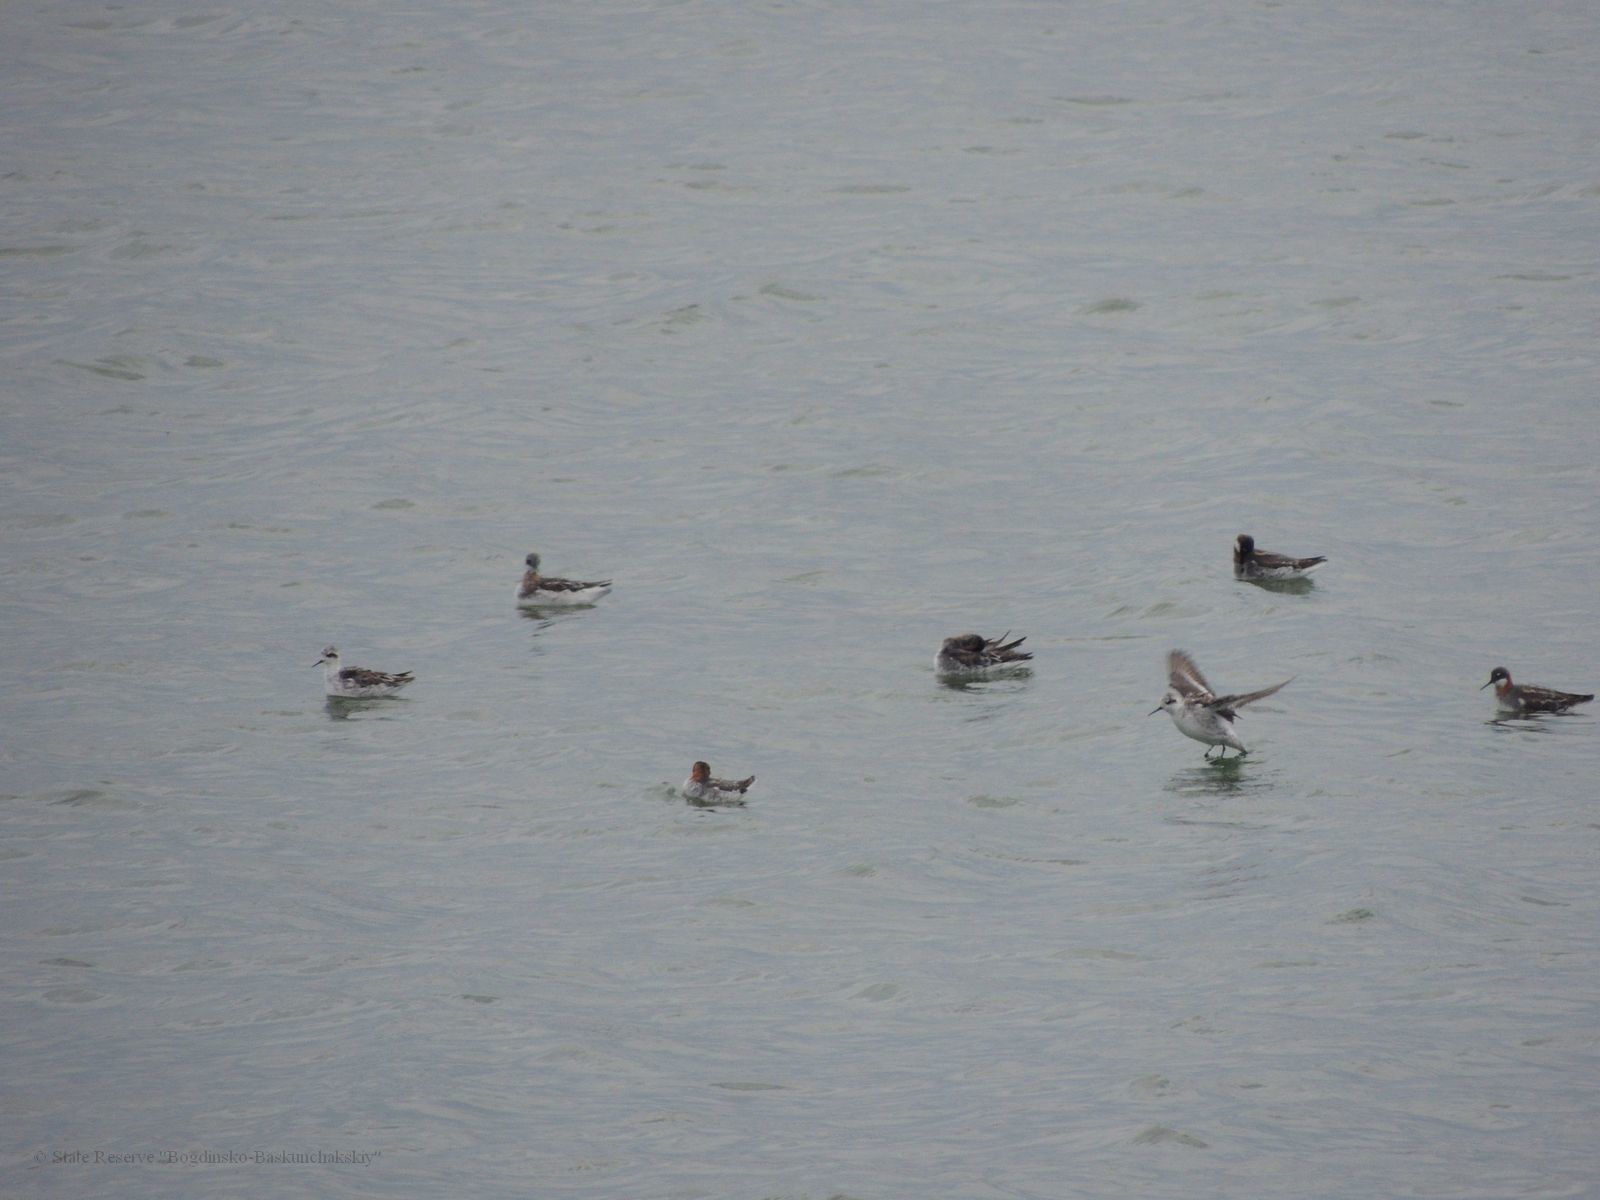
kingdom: Animalia
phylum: Chordata
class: Aves
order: Charadriiformes
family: Scolopacidae
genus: Phalaropus
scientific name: Phalaropus lobatus
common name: Red-necked phalarope
